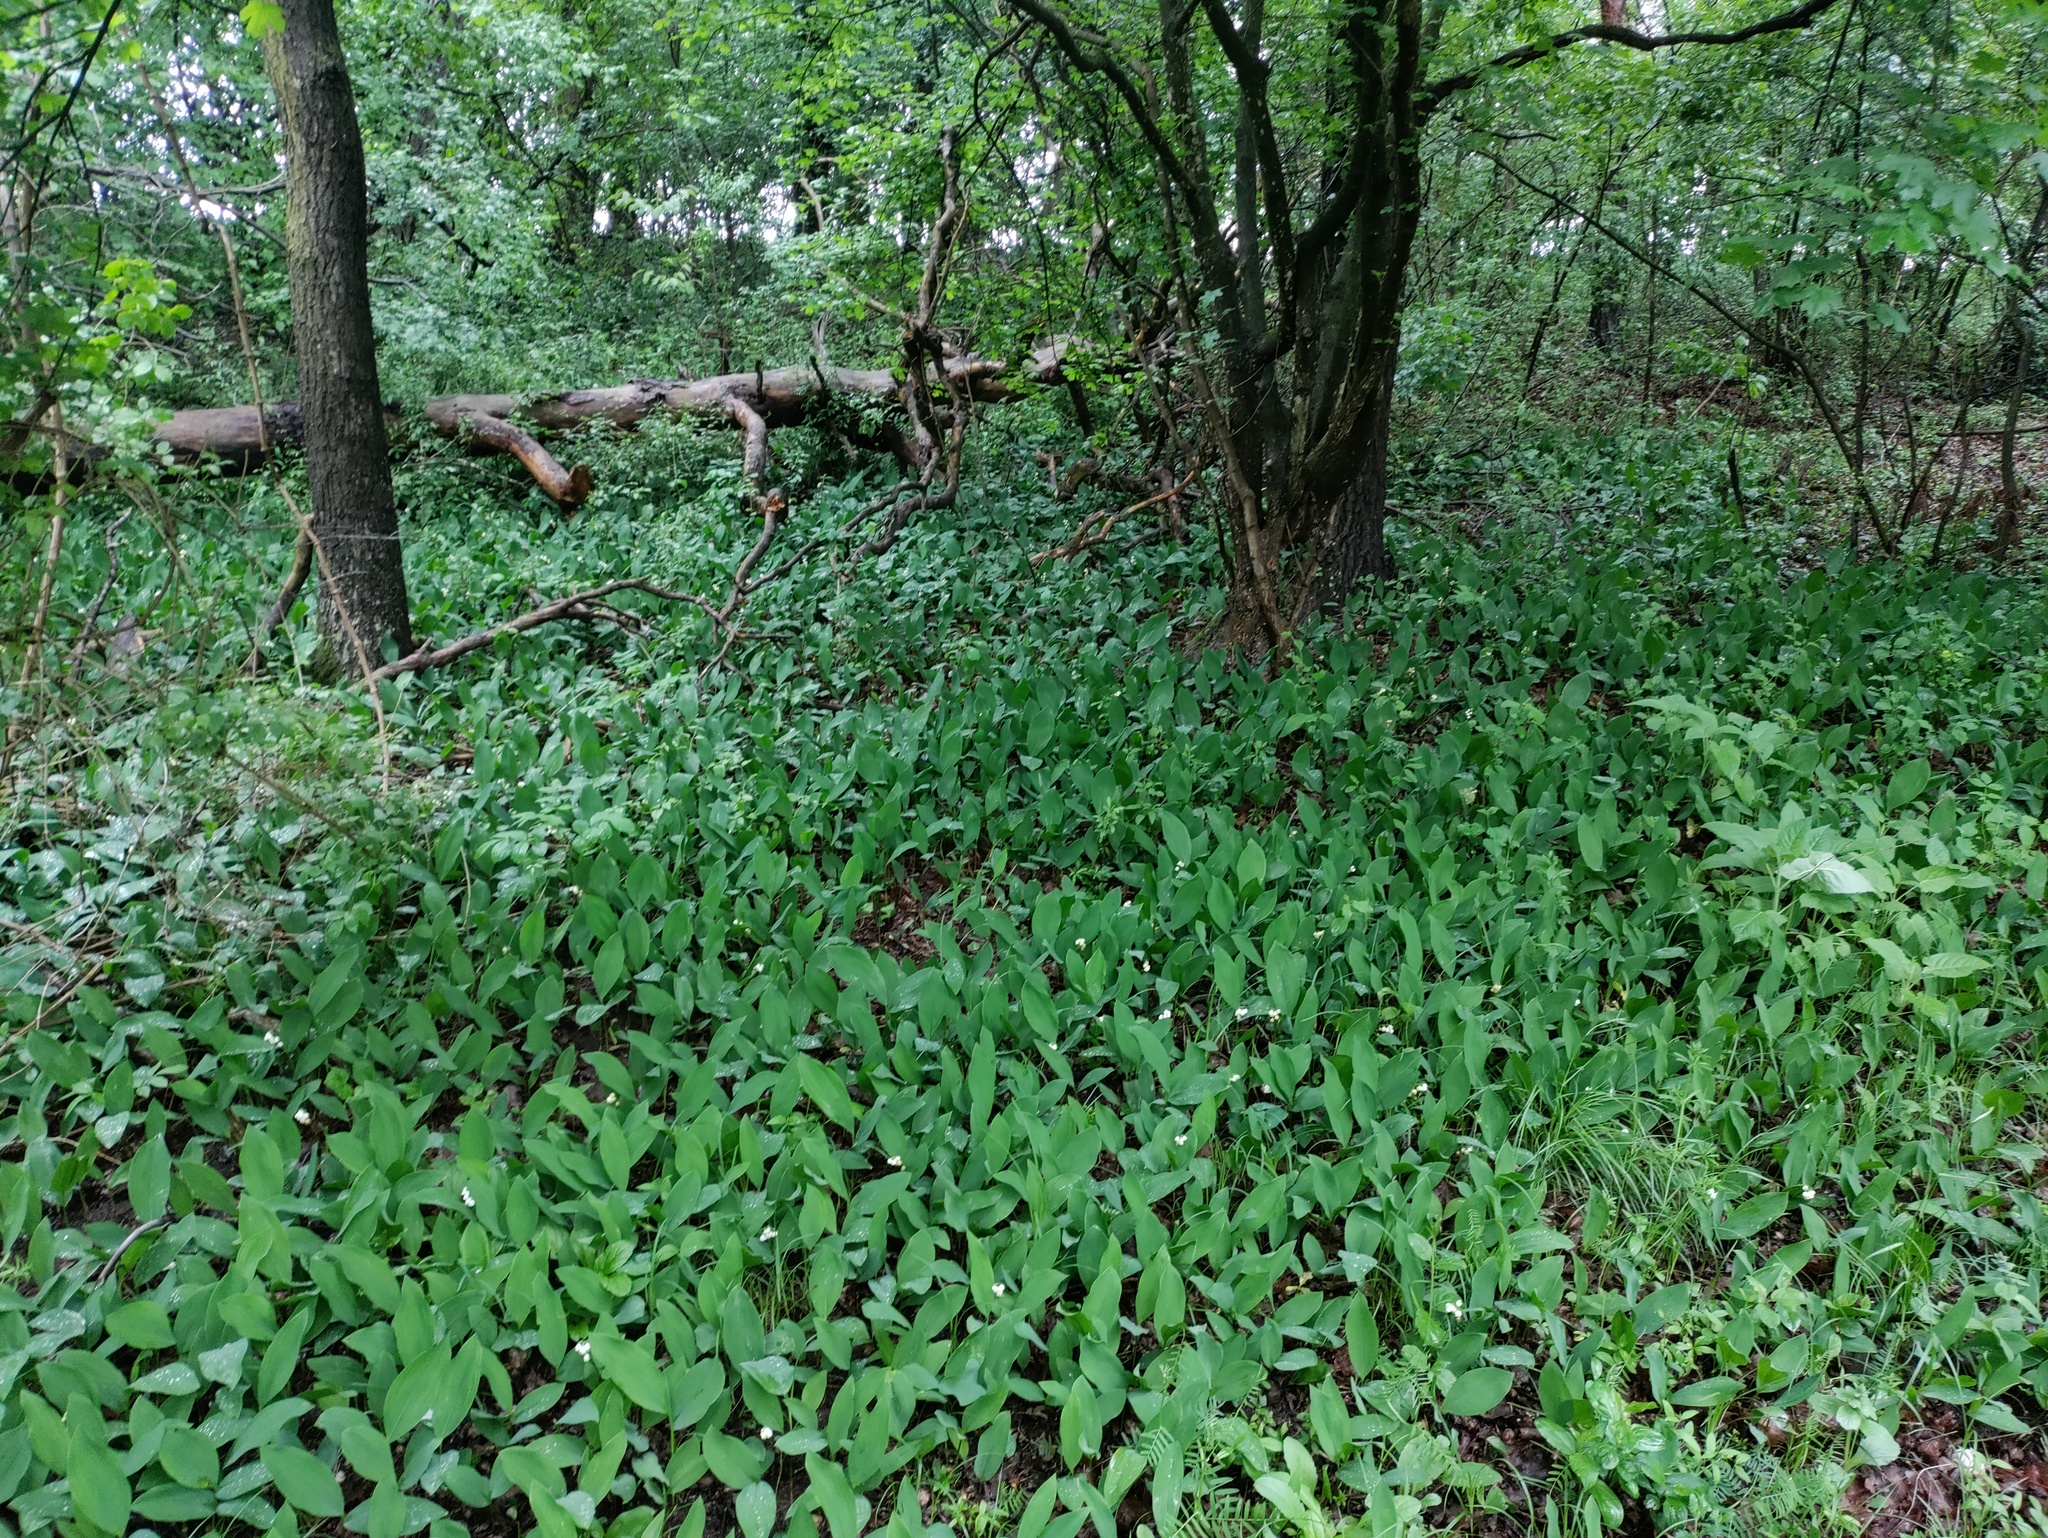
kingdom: Plantae
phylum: Tracheophyta
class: Liliopsida
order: Asparagales
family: Asparagaceae
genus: Convallaria
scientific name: Convallaria majalis
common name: Lily-of-the-valley
